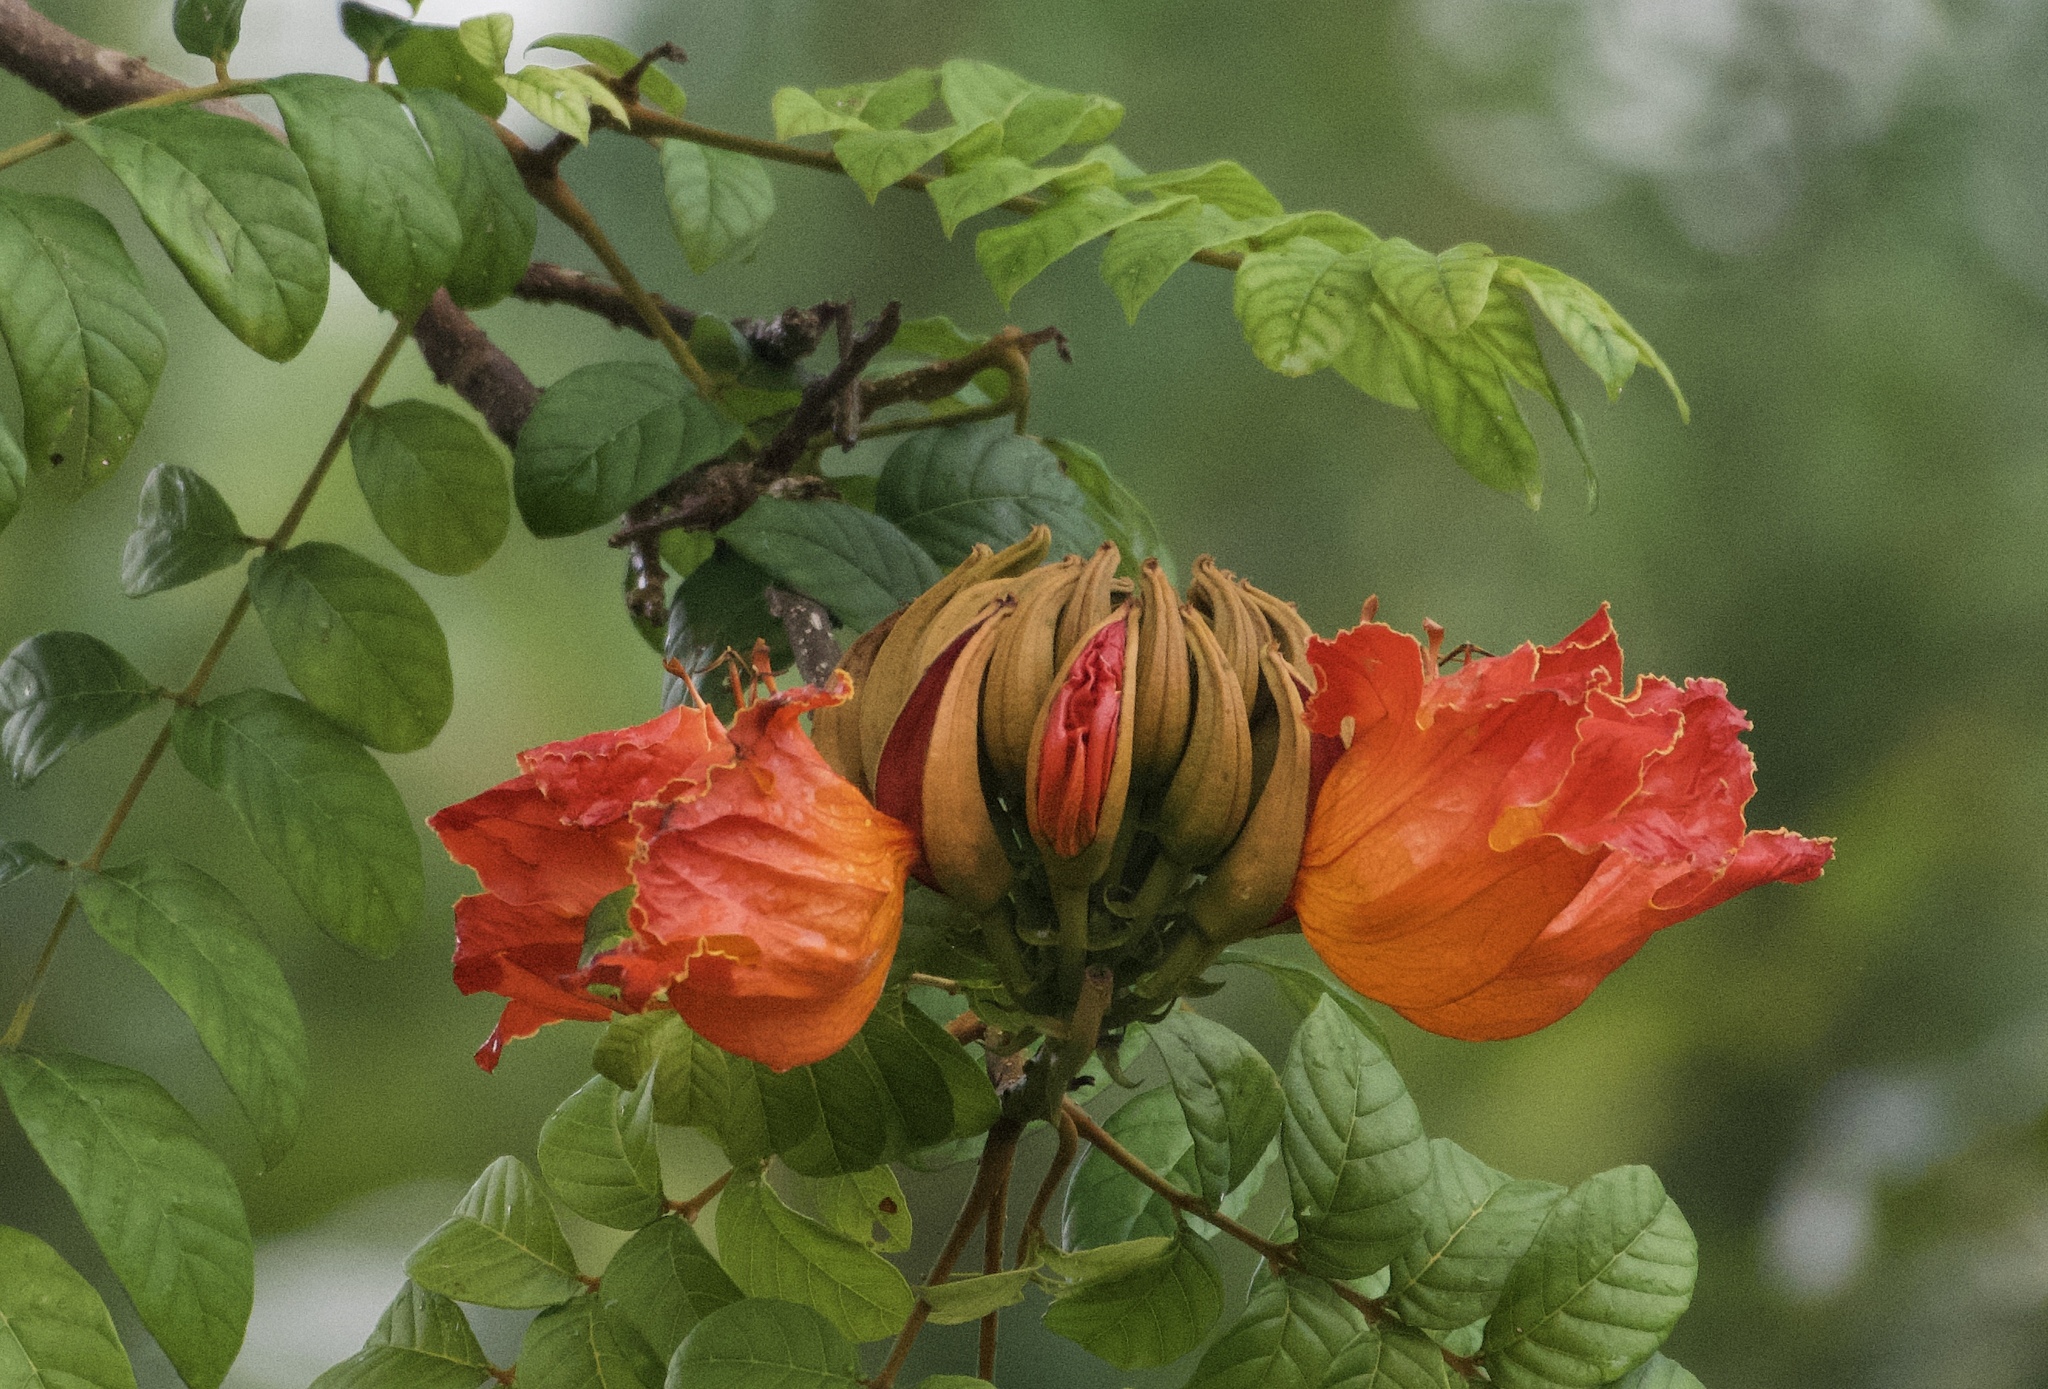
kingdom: Plantae
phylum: Tracheophyta
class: Magnoliopsida
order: Lamiales
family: Bignoniaceae
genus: Spathodea
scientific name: Spathodea campanulata
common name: African tuliptree
